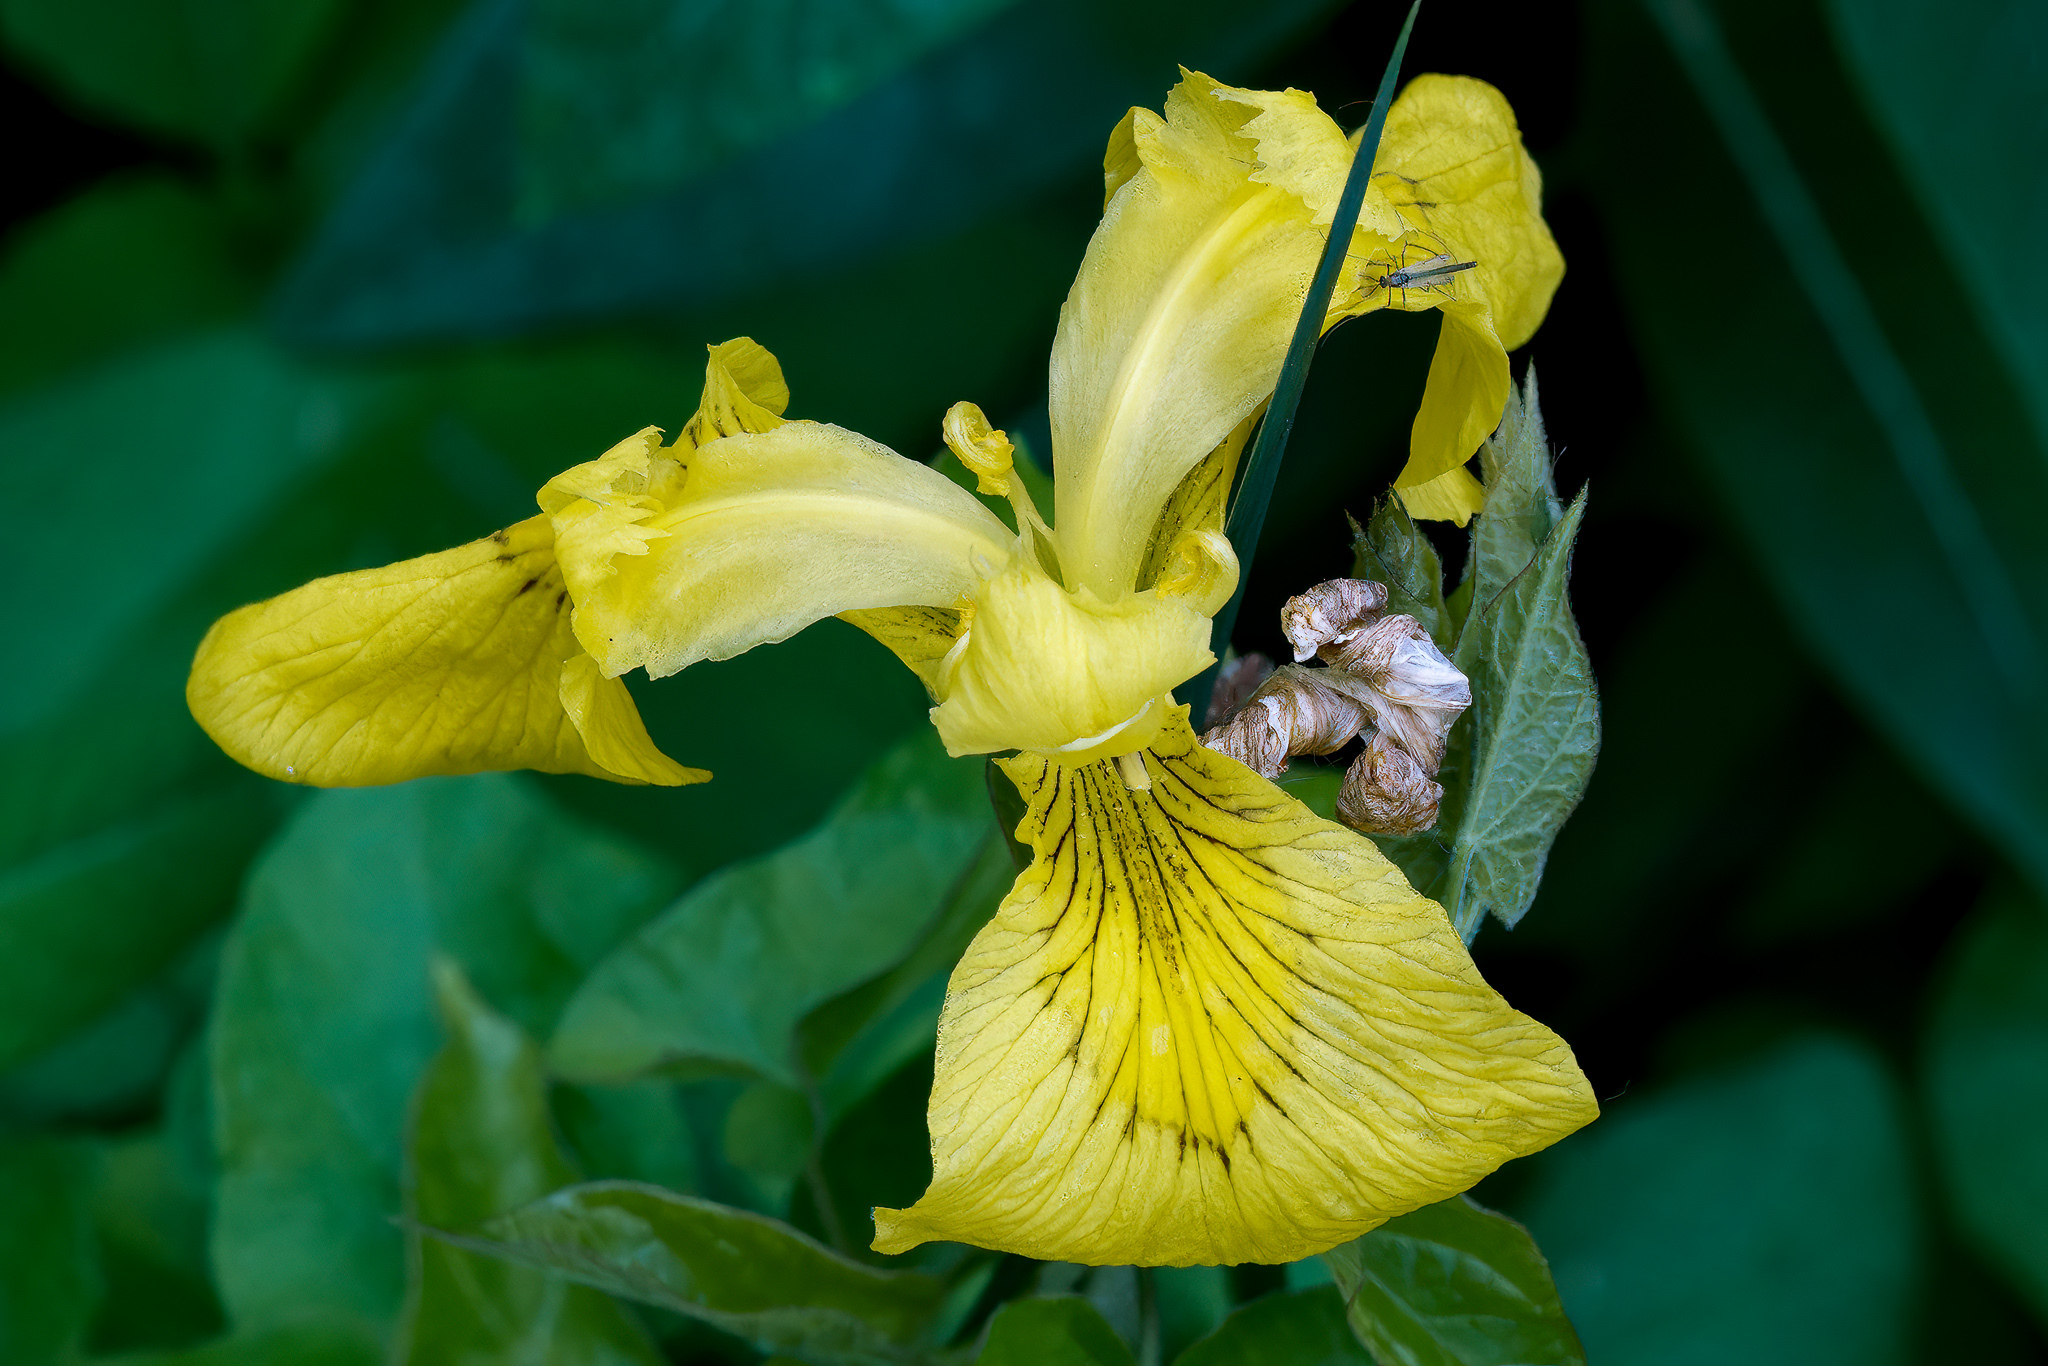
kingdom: Plantae
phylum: Tracheophyta
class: Liliopsida
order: Asparagales
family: Iridaceae
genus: Iris
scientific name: Iris pseudacorus
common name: Yellow flag
